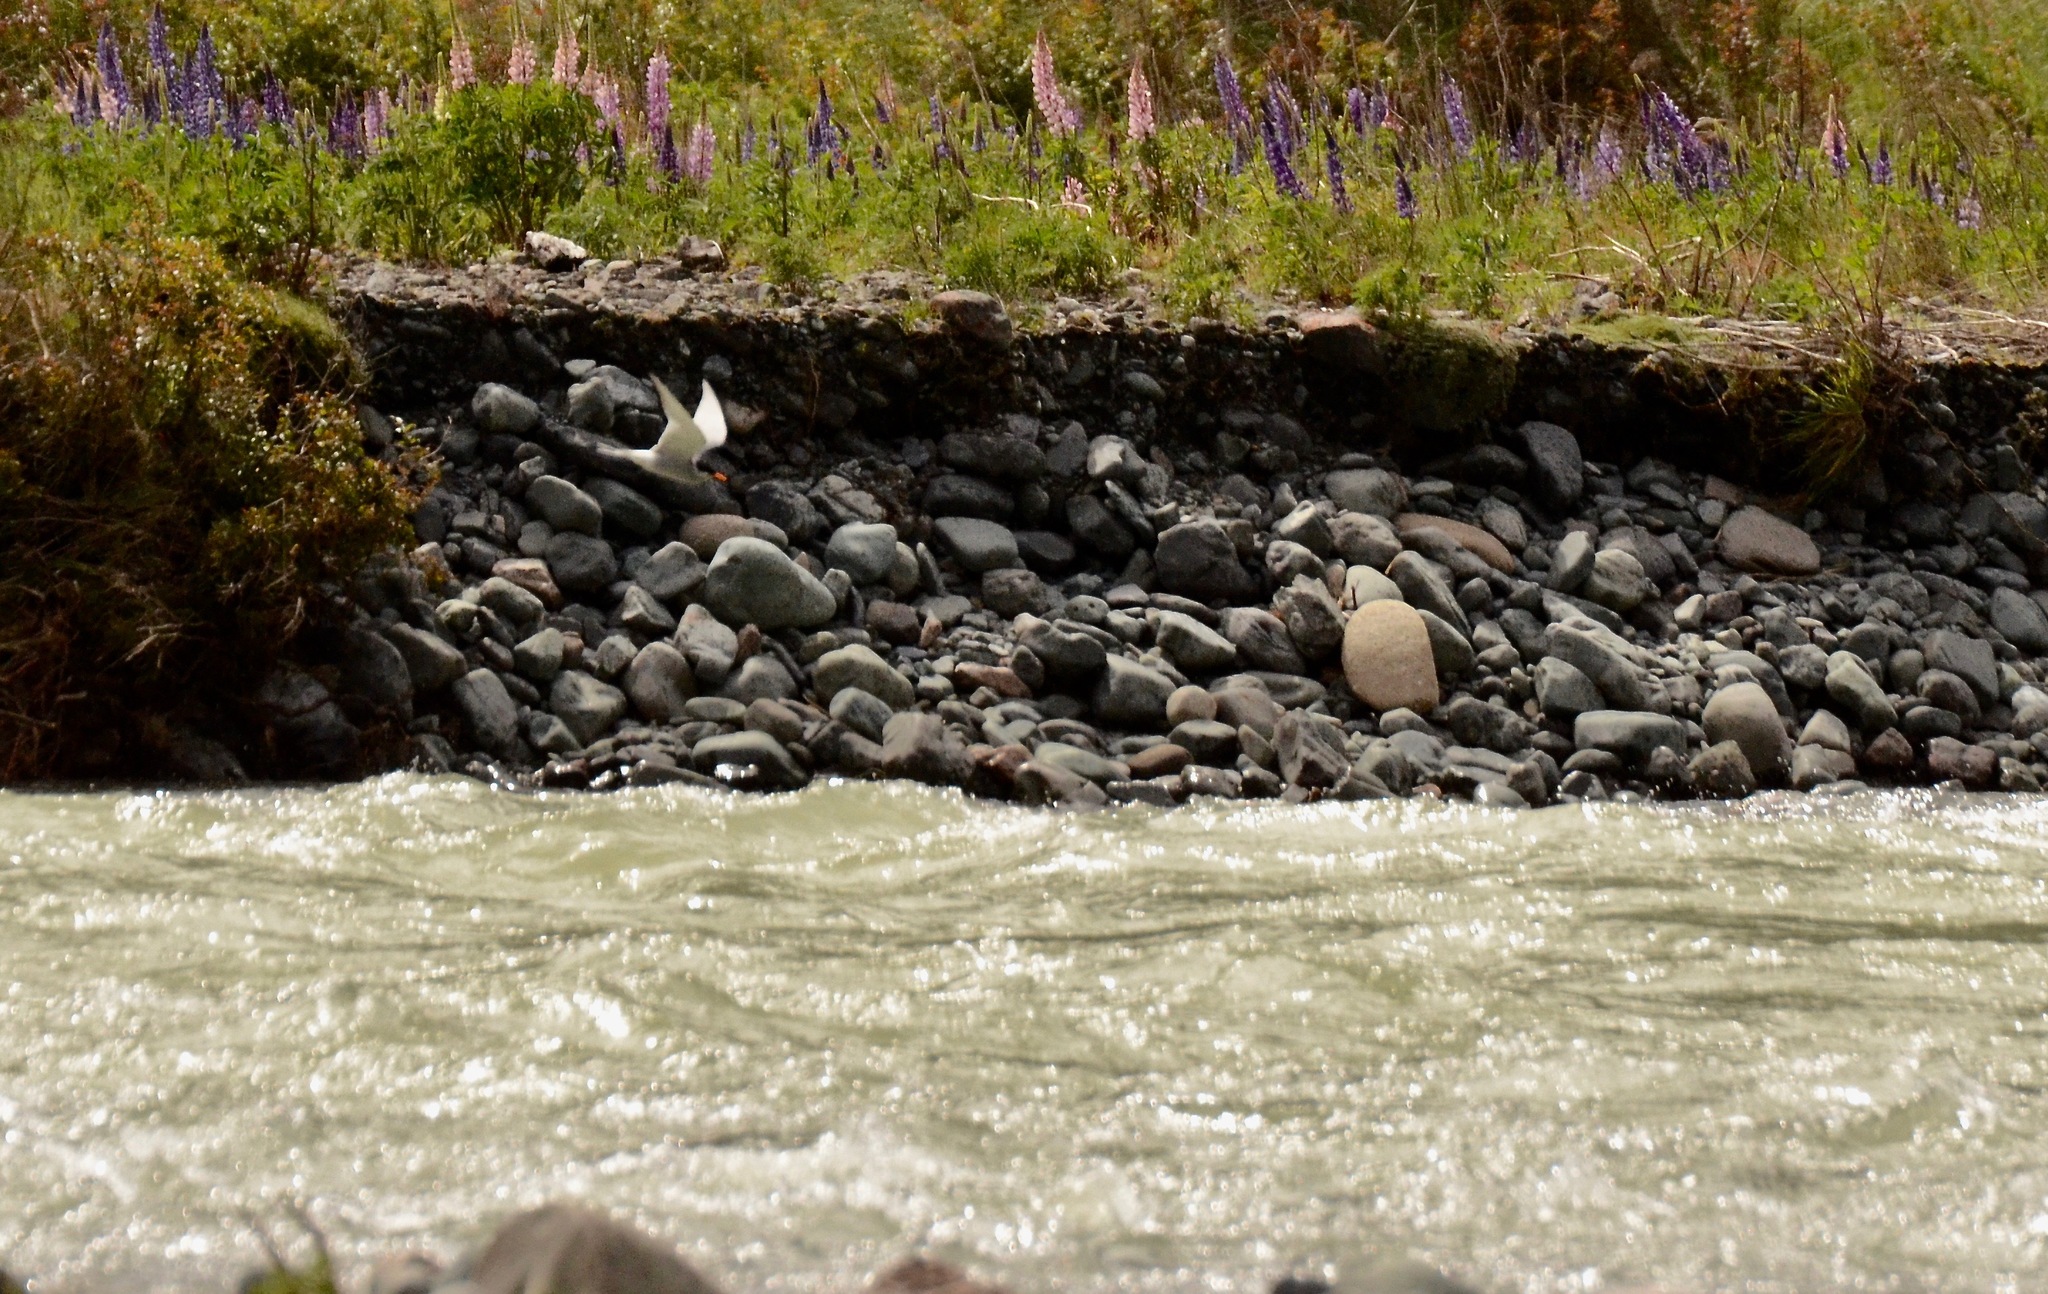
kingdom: Animalia
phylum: Chordata
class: Aves
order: Charadriiformes
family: Laridae
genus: Chlidonias
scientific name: Chlidonias albostriatus
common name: Black-fronted tern
